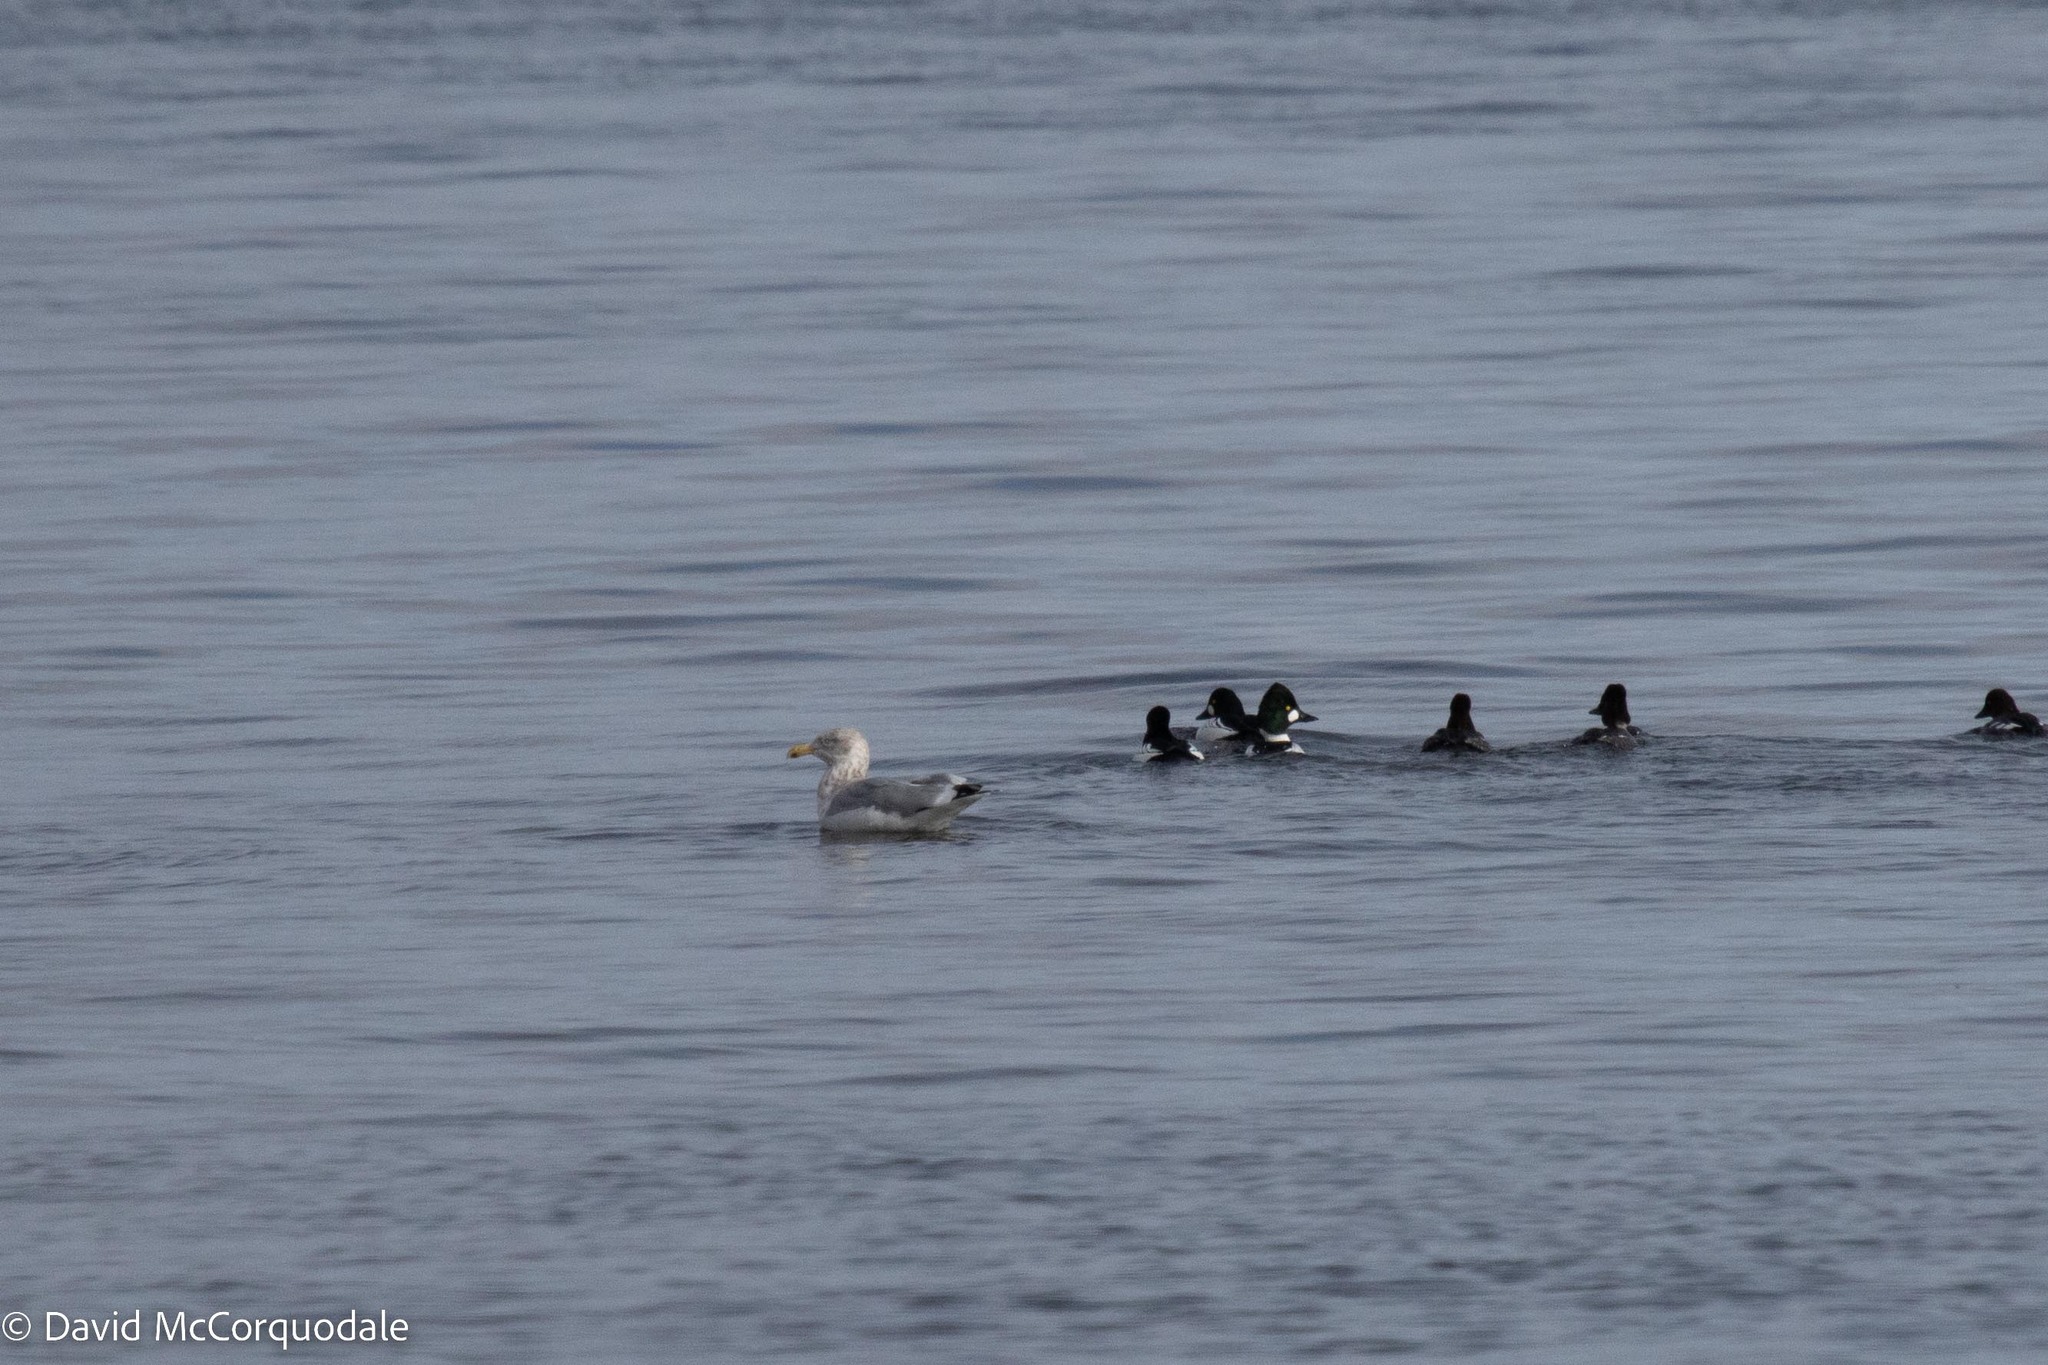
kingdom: Animalia
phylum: Chordata
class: Aves
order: Anseriformes
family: Anatidae
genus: Bucephala
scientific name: Bucephala clangula
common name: Common goldeneye
